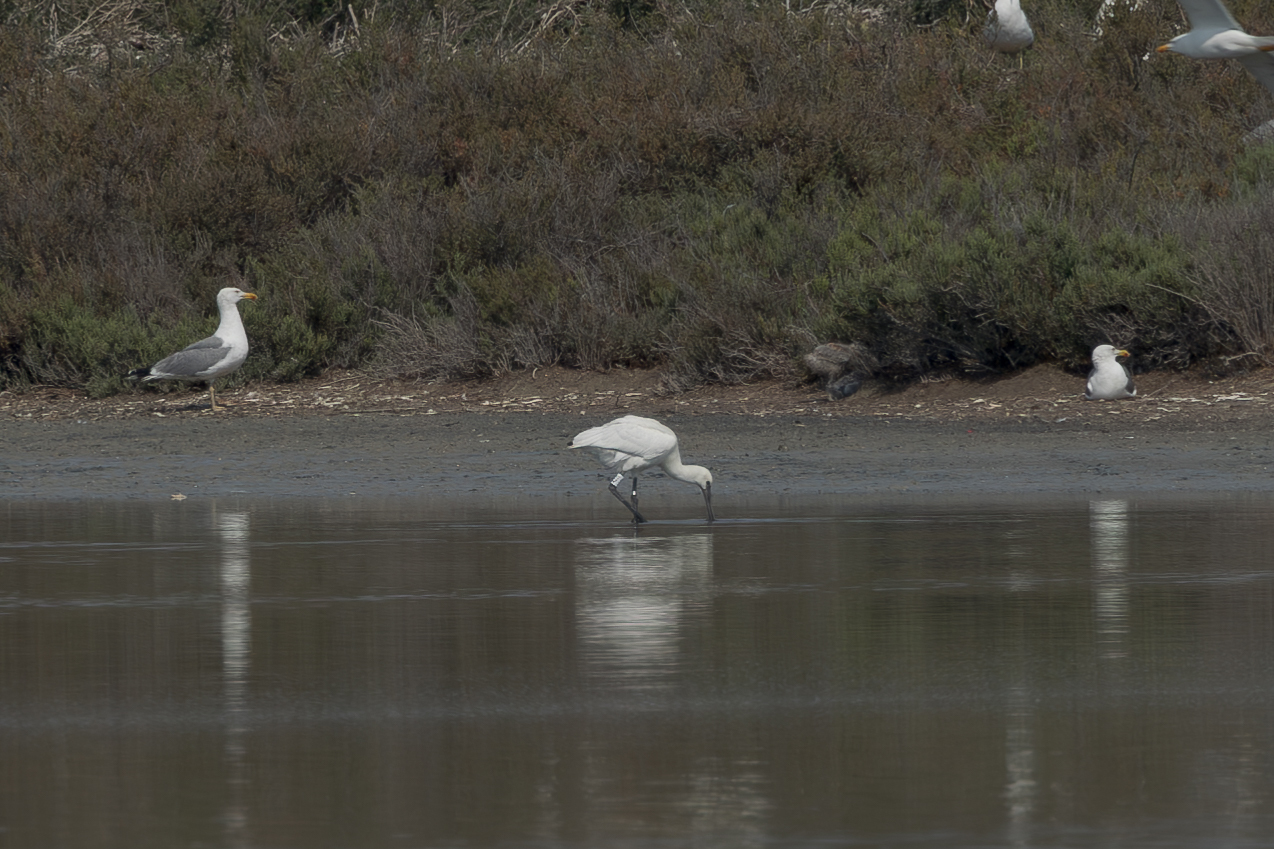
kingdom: Animalia
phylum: Chordata
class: Aves
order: Pelecaniformes
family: Threskiornithidae
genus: Platalea
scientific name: Platalea leucorodia
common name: Eurasian spoonbill
